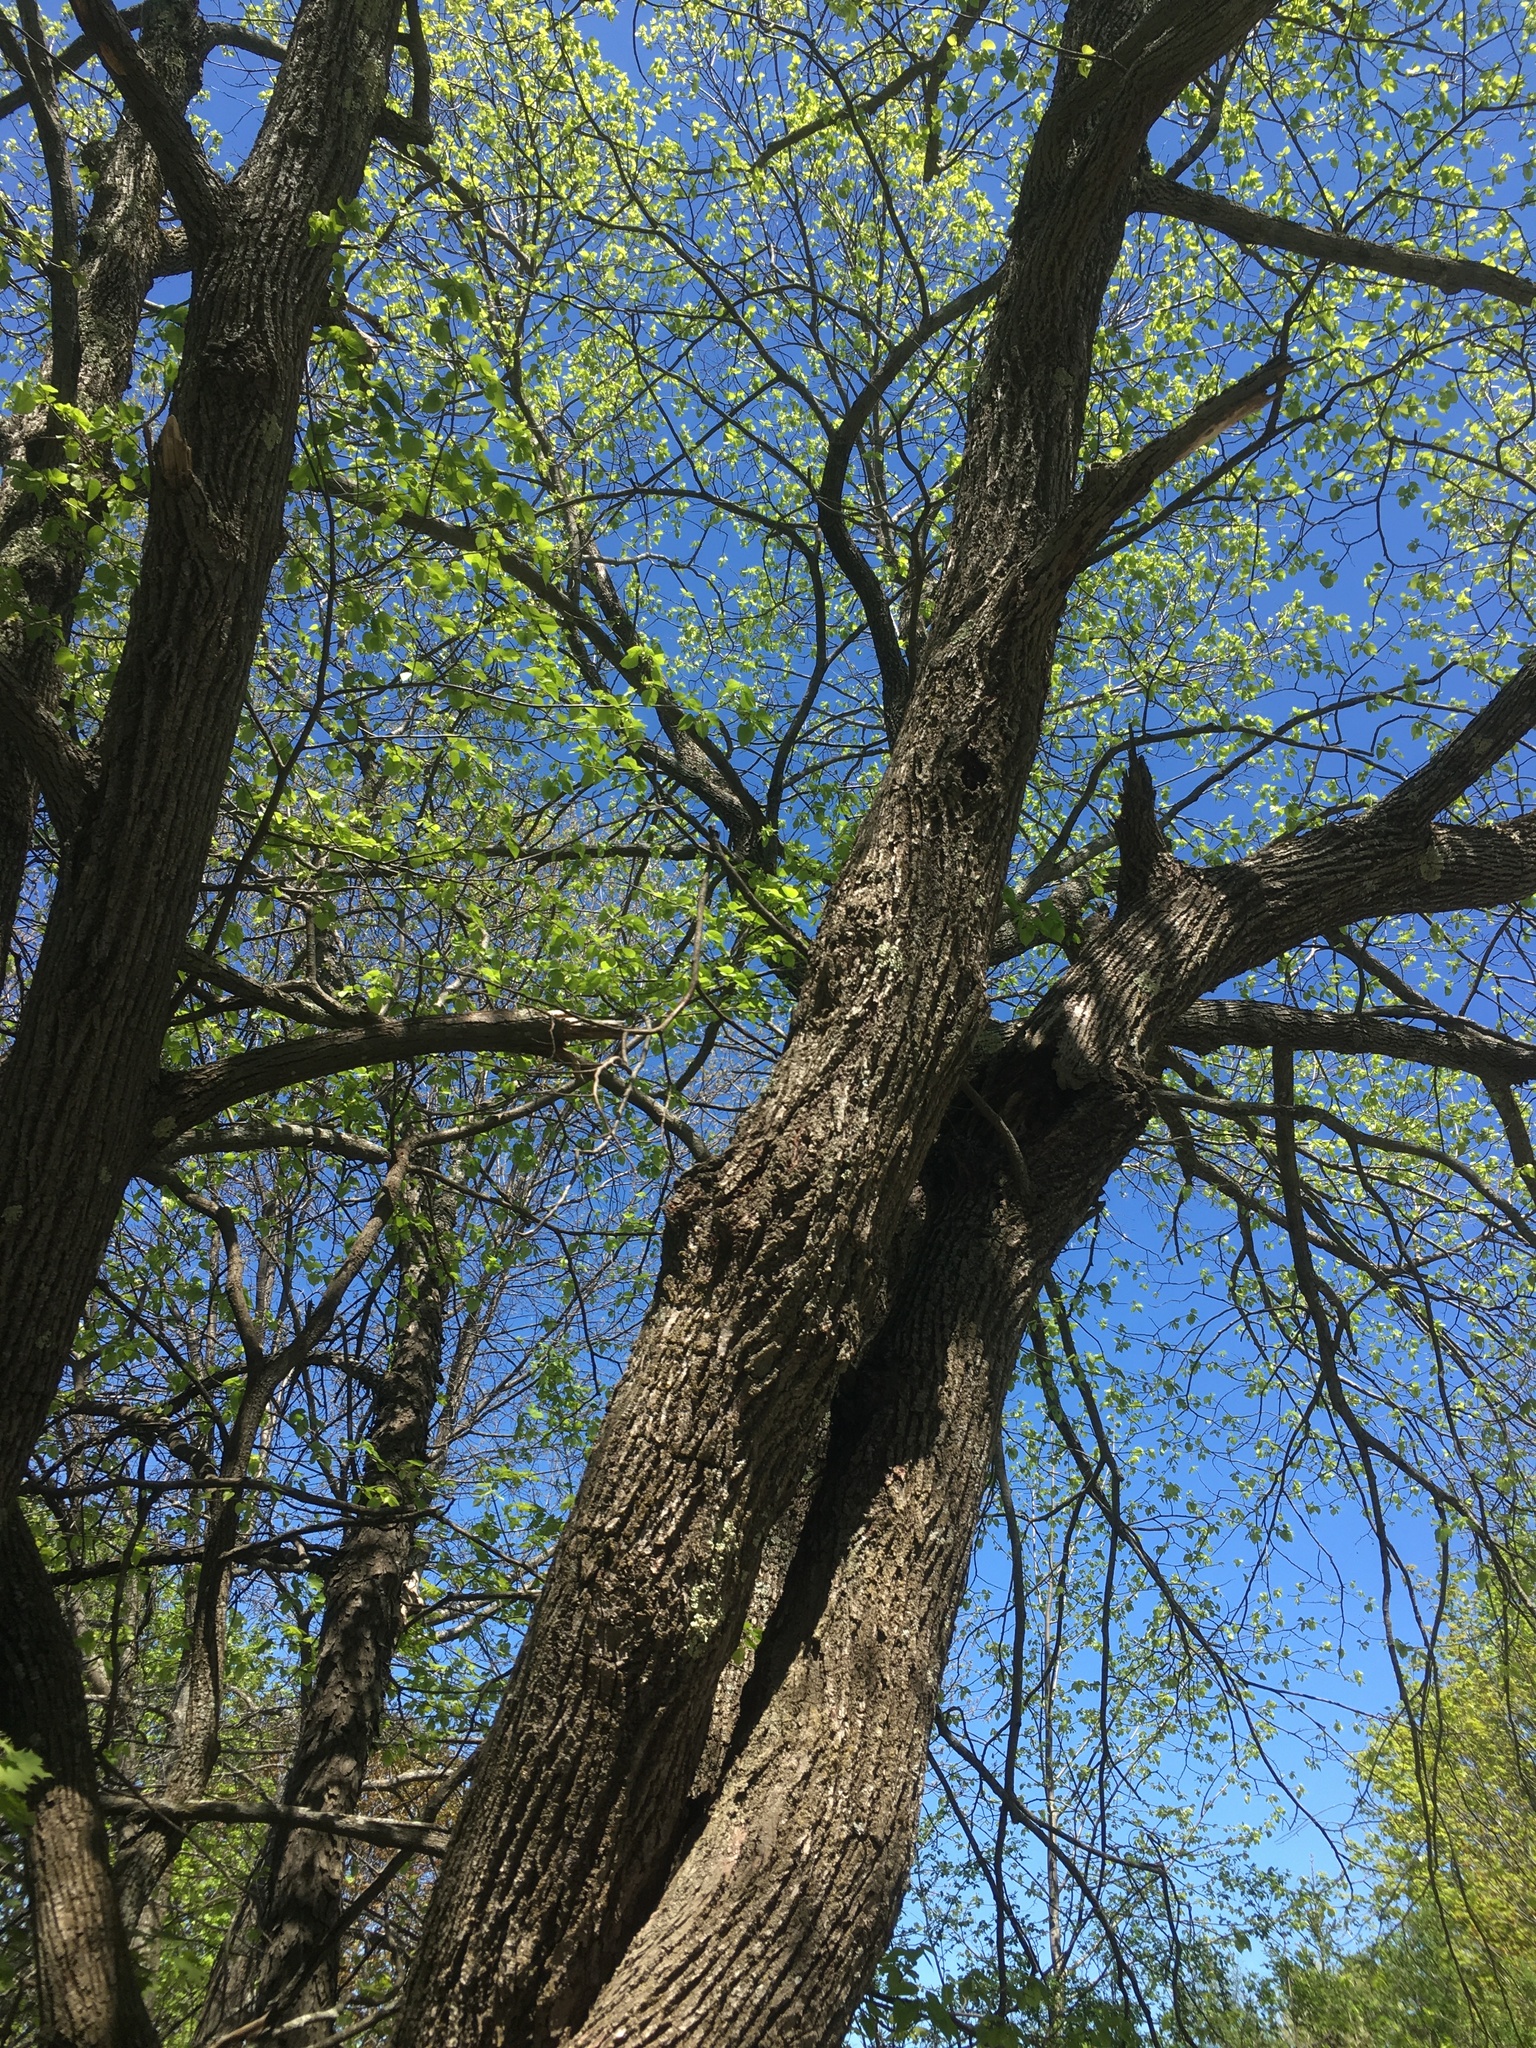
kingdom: Plantae
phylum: Tracheophyta
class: Magnoliopsida
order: Malvales
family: Malvaceae
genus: Tilia
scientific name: Tilia americana
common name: Basswood
